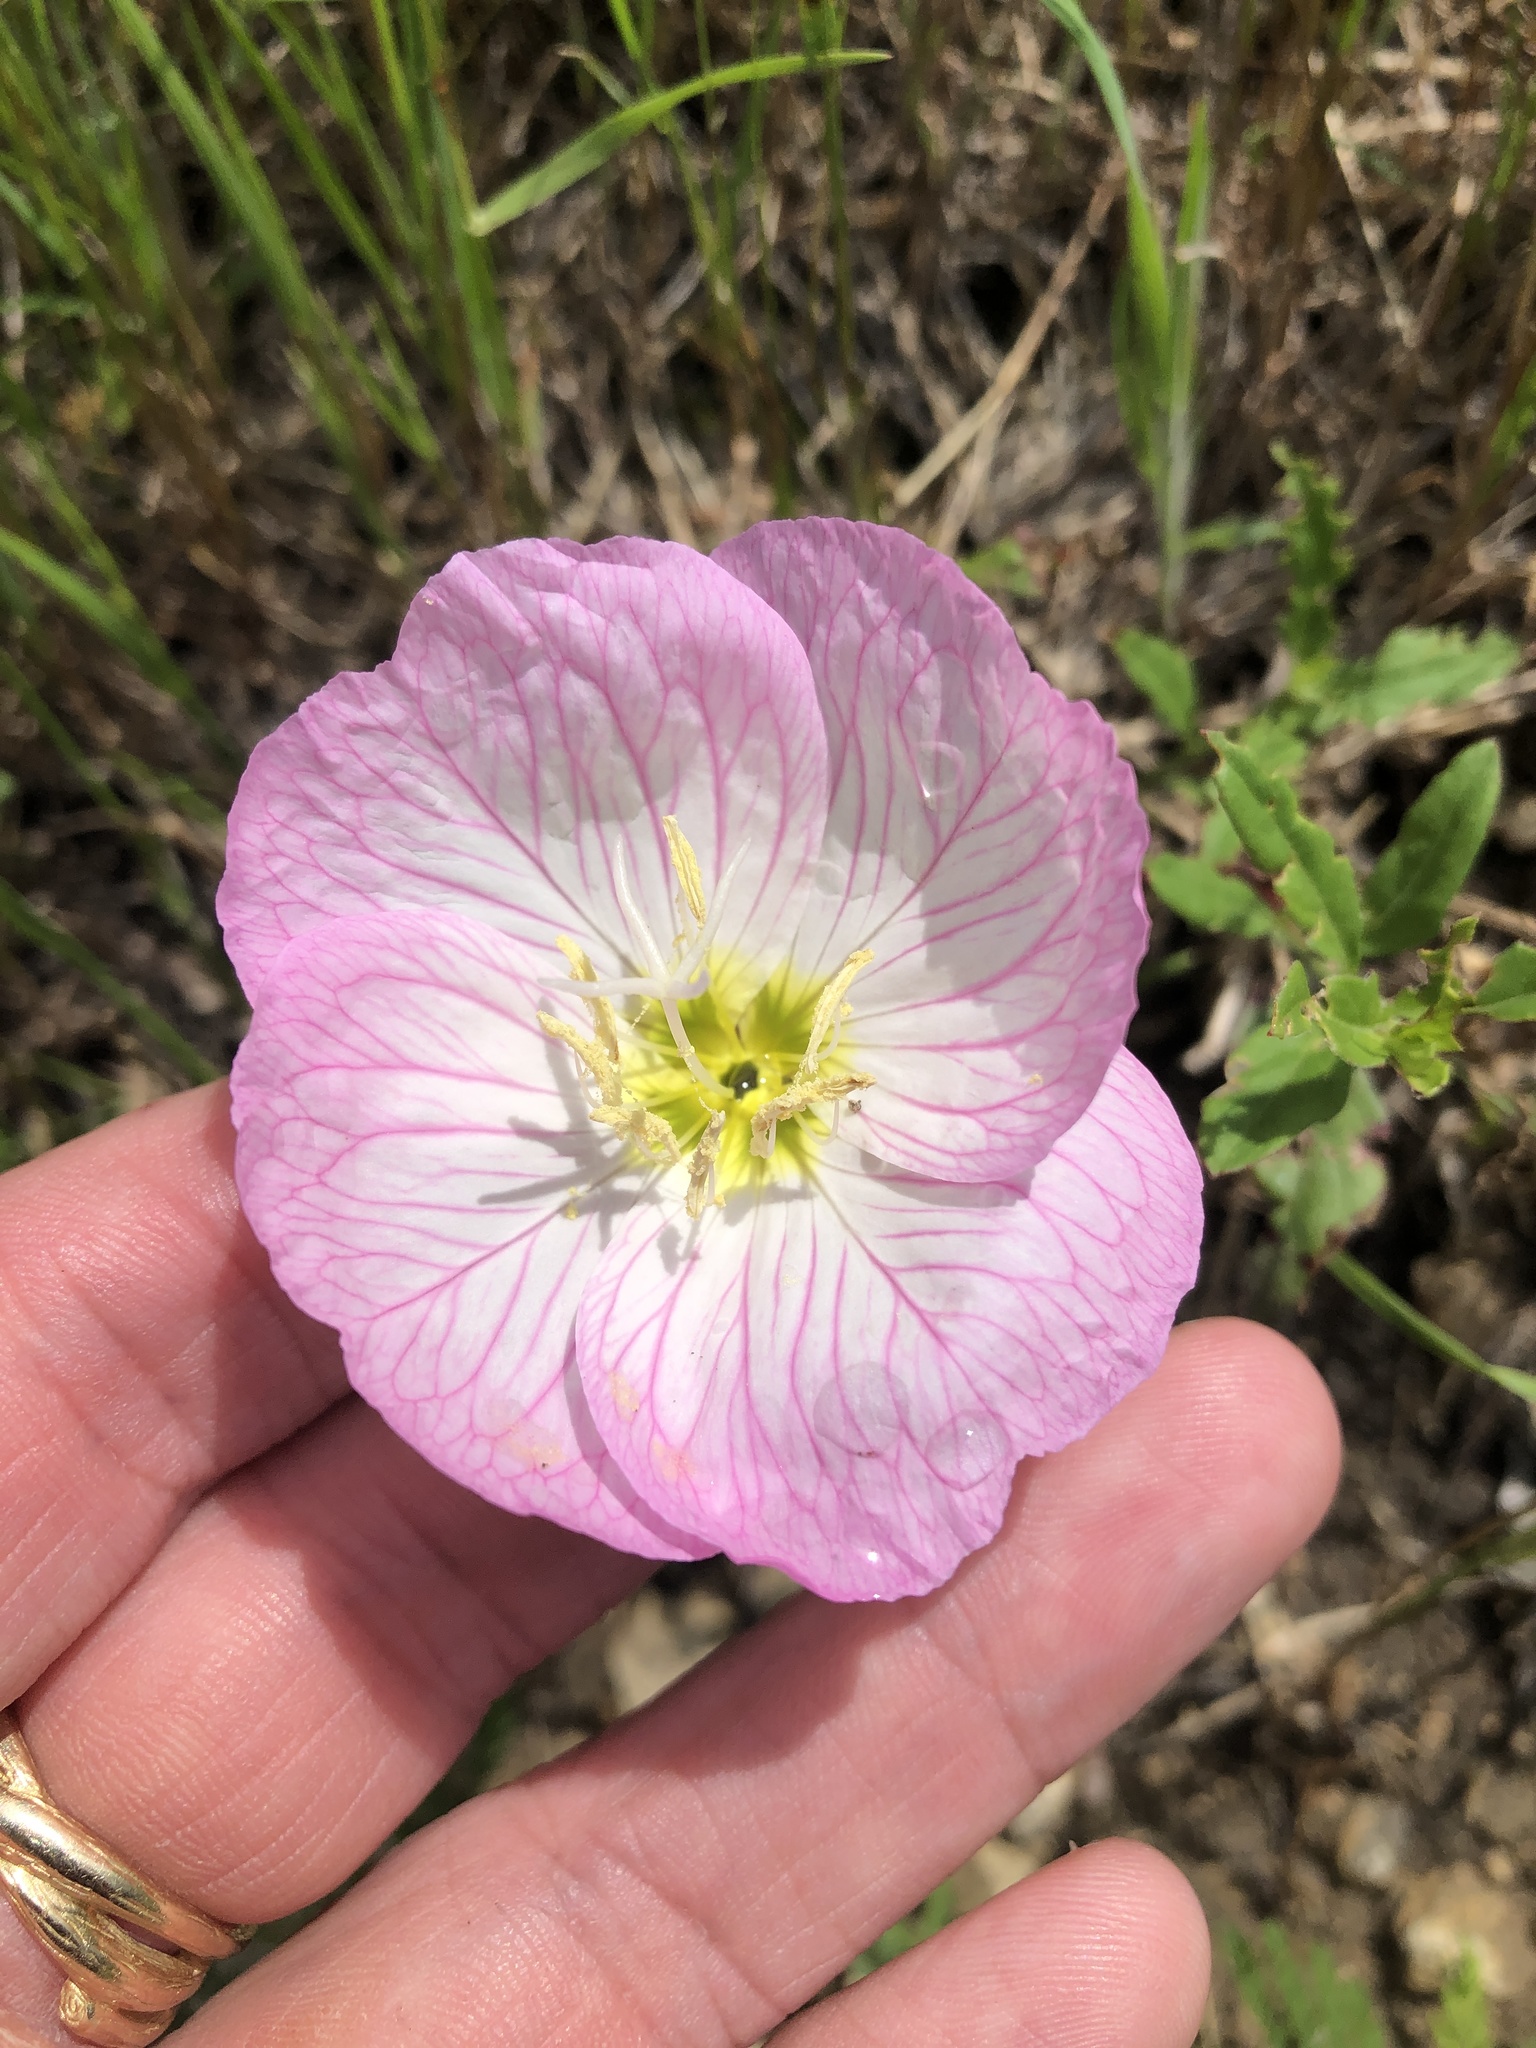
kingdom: Plantae
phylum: Tracheophyta
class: Magnoliopsida
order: Myrtales
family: Onagraceae
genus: Oenothera
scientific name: Oenothera speciosa
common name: White evening-primrose
